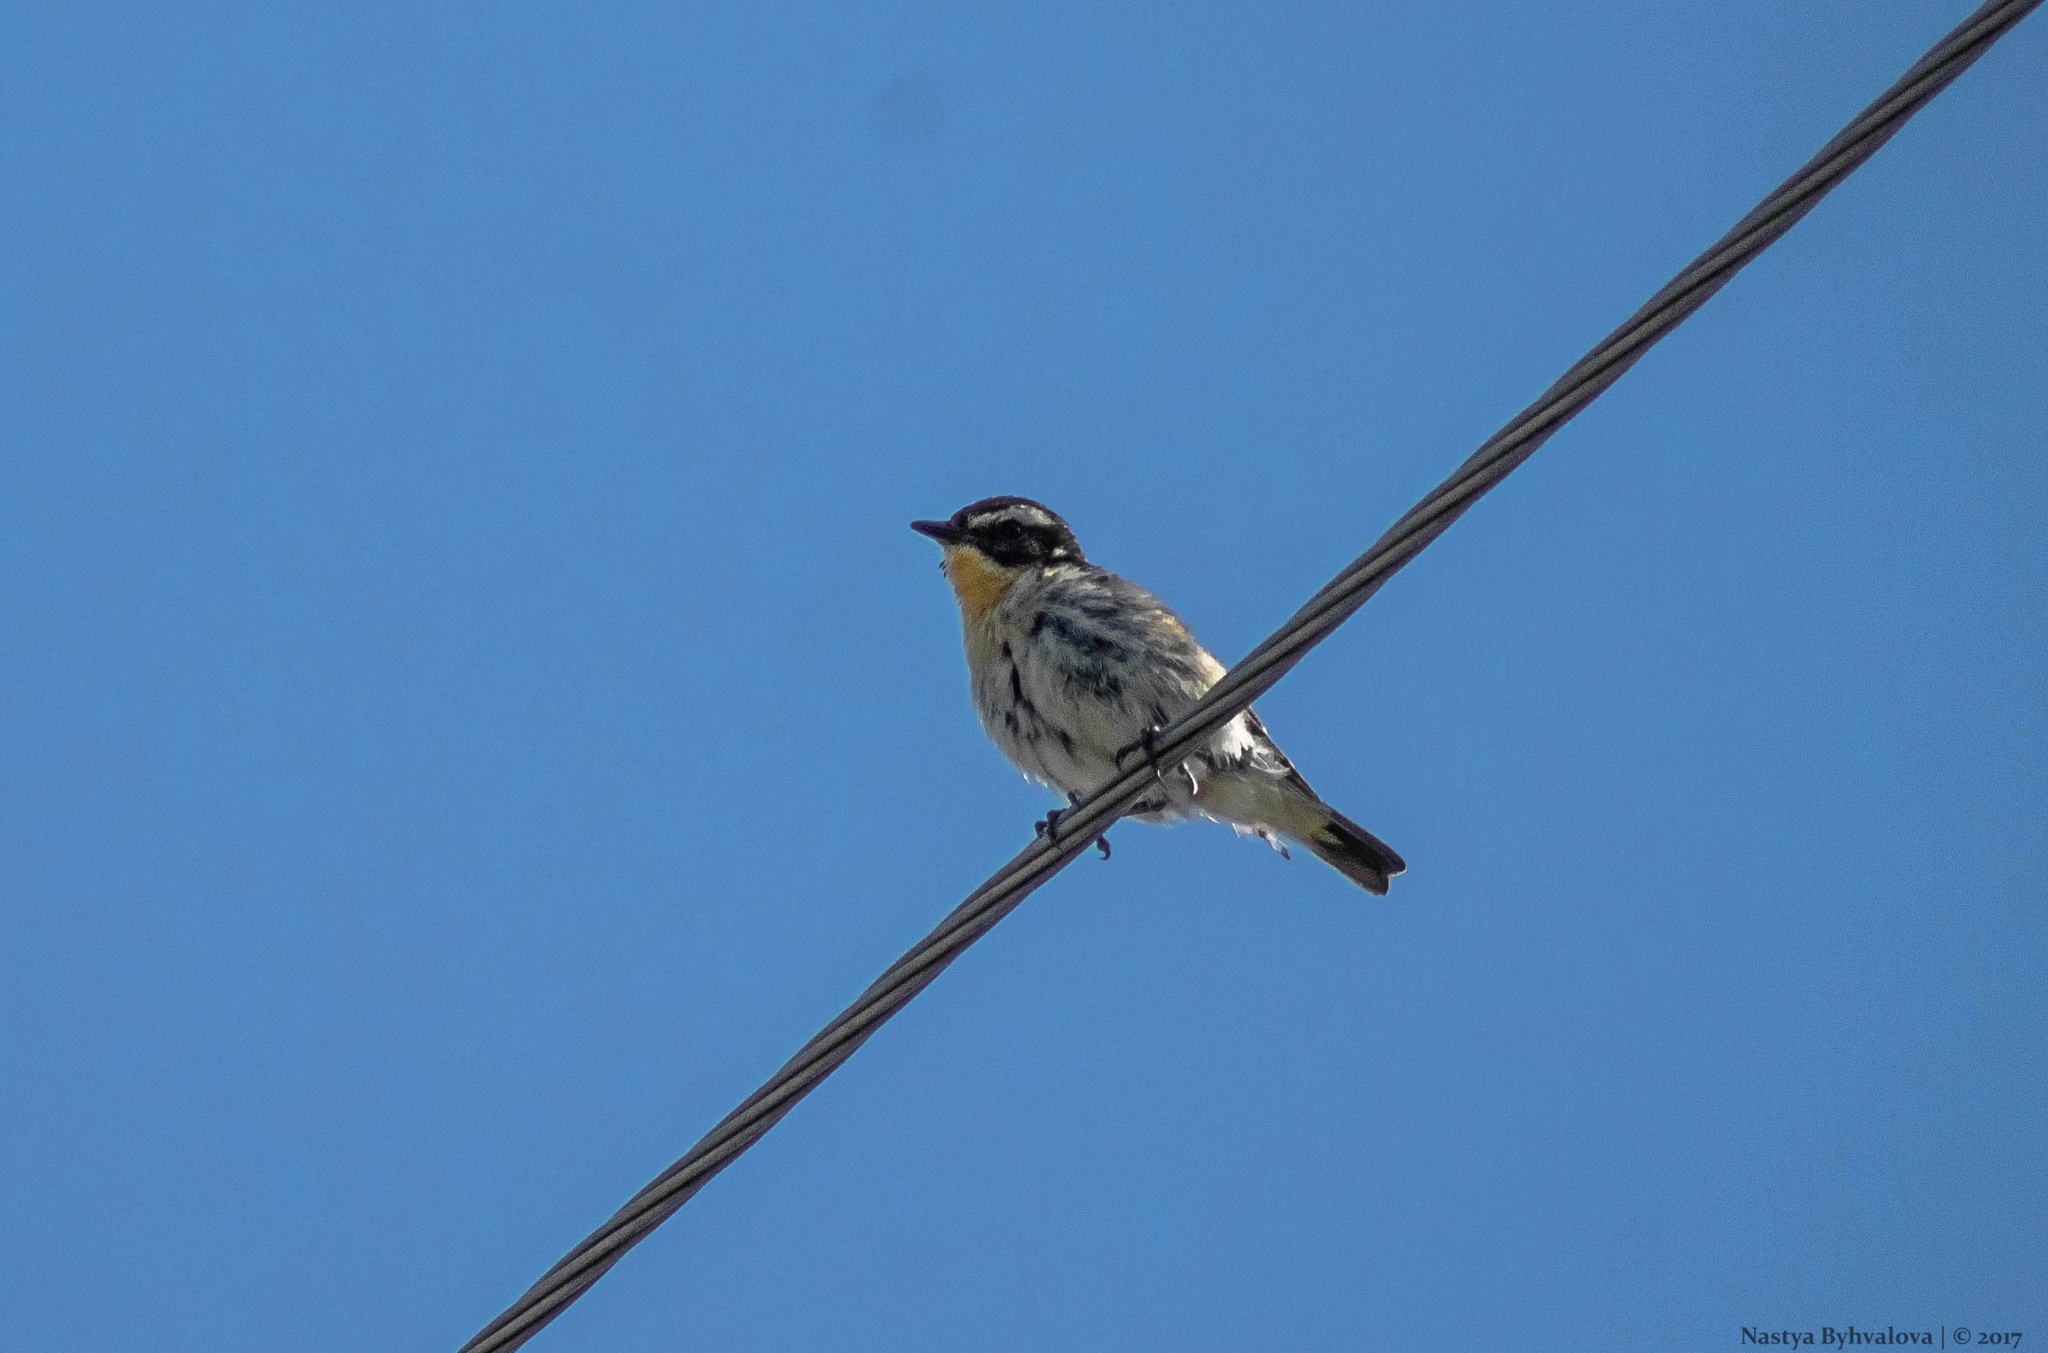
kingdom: Animalia
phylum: Chordata
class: Aves
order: Passeriformes
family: Muscicapidae
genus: Saxicola
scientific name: Saxicola rubetra
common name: Whinchat
